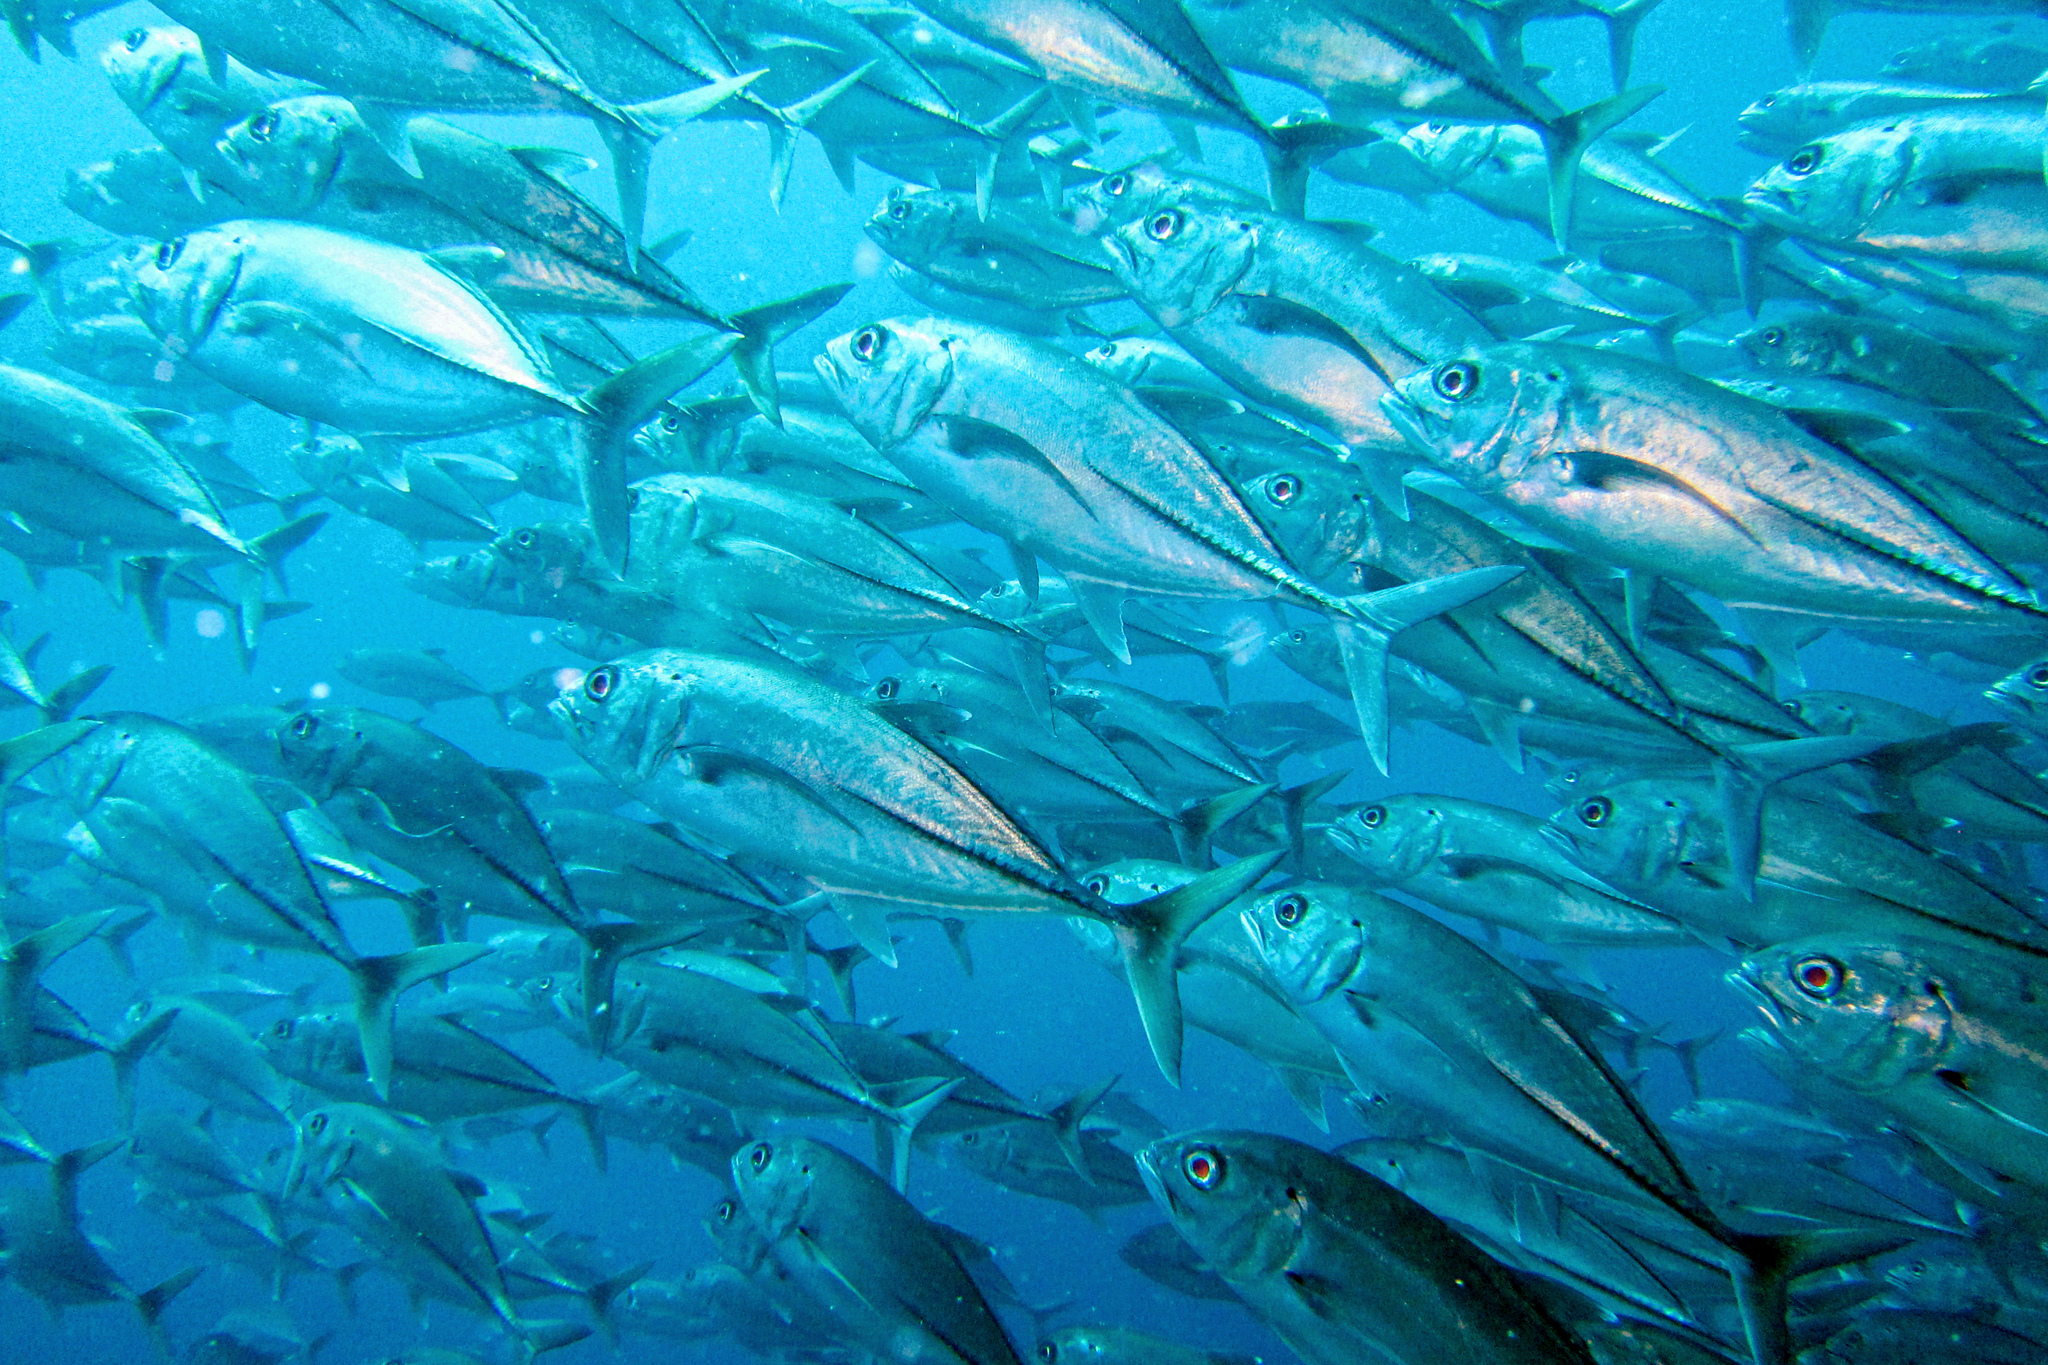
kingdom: Animalia
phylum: Chordata
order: Perciformes
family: Carangidae
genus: Caranx
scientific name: Caranx sexfasciatus
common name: Bigeye trevally
